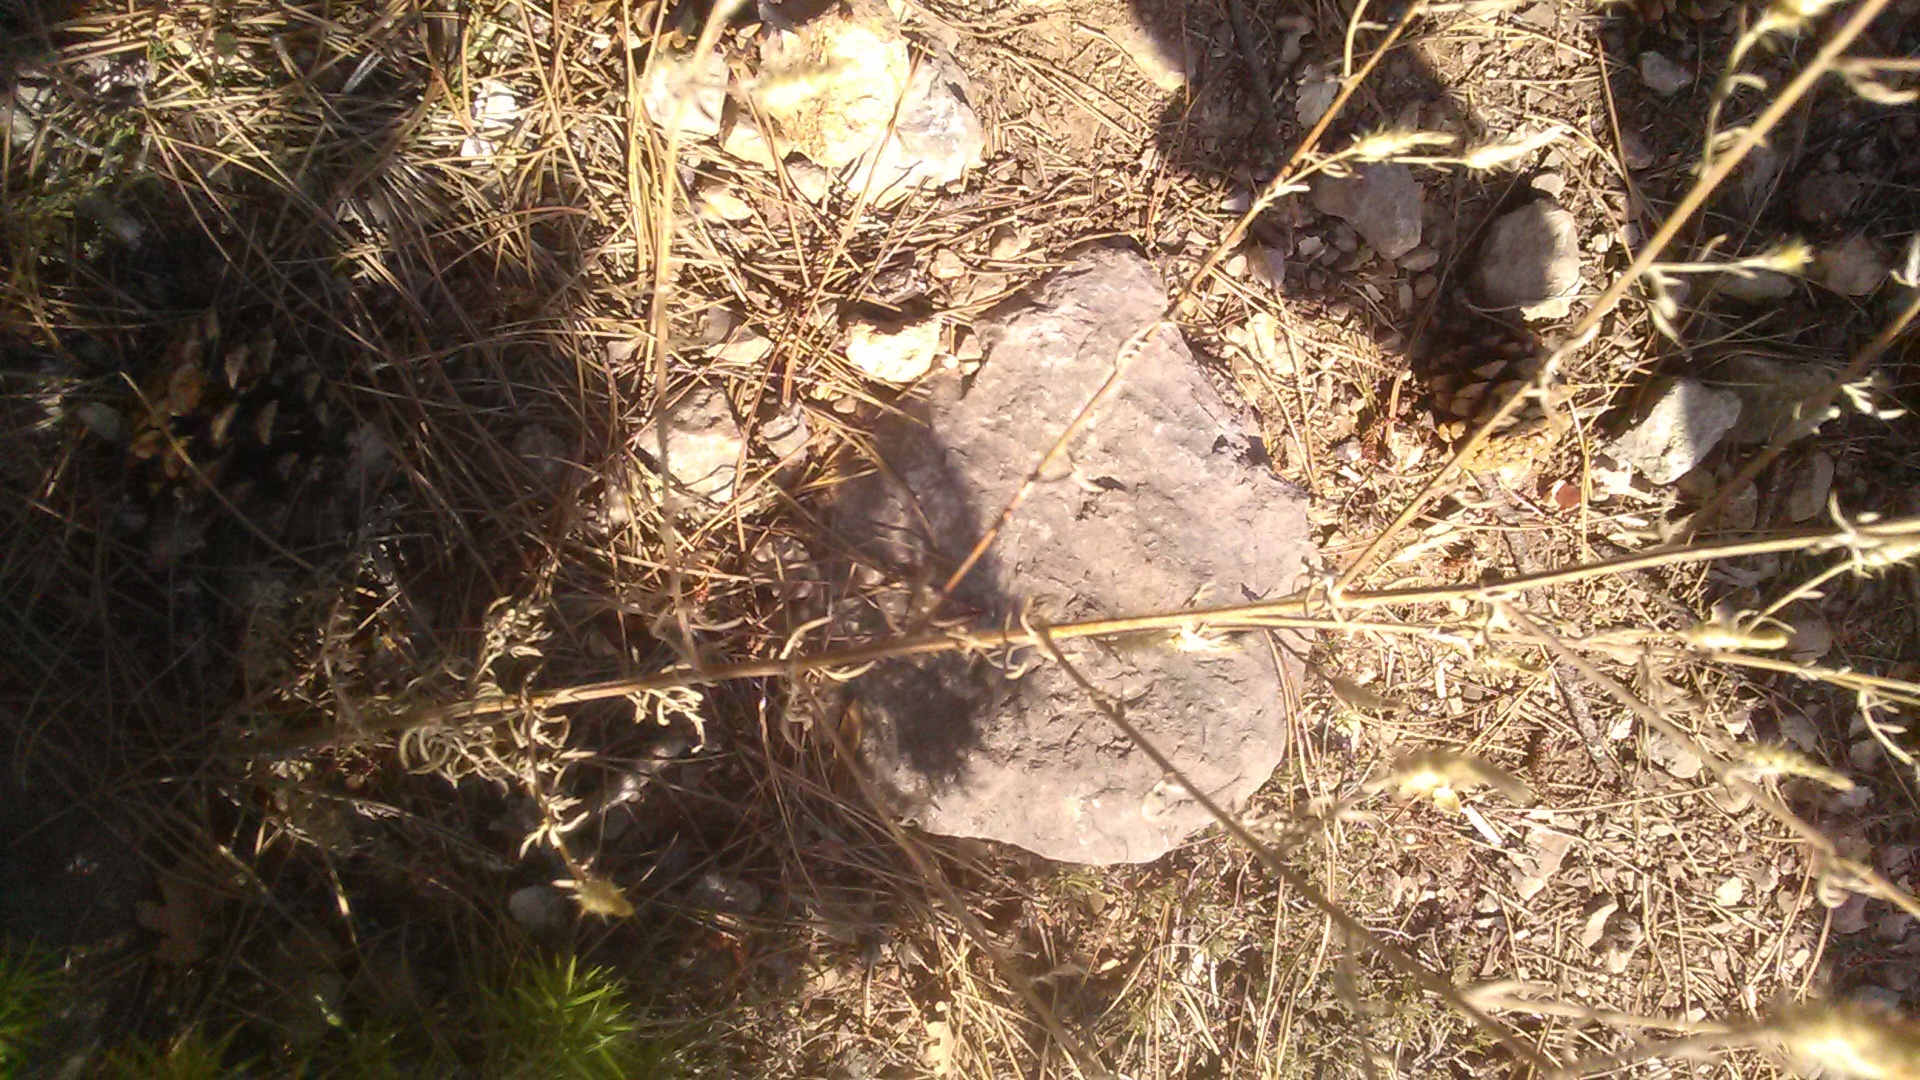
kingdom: Plantae
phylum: Tracheophyta
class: Magnoliopsida
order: Asterales
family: Asteraceae
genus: Centaurea
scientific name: Centaurea diffusa
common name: Diffuse knapweed
